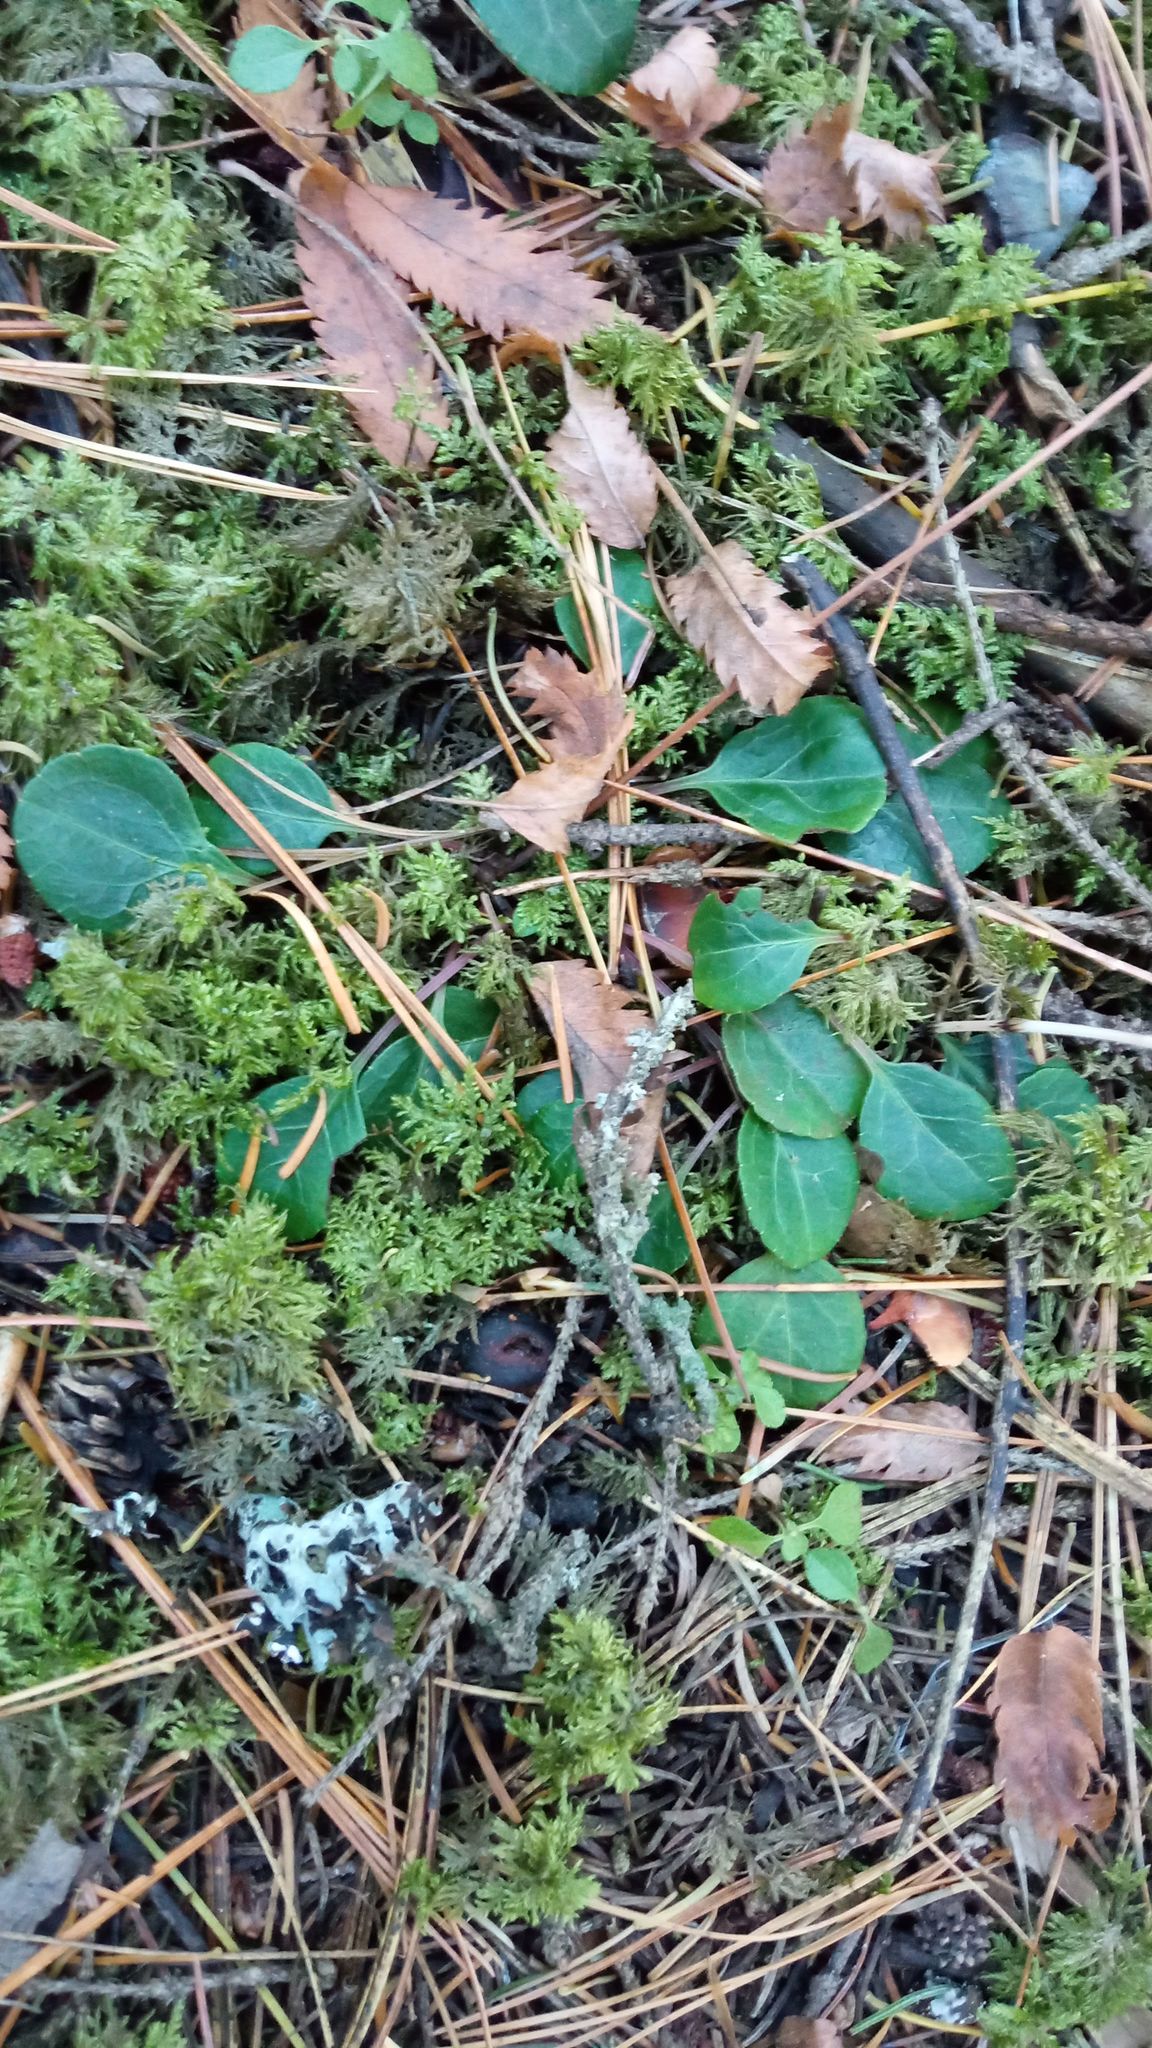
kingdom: Plantae
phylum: Tracheophyta
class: Magnoliopsida
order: Ericales
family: Ericaceae
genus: Pyrola
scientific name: Pyrola chlorantha
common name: Green wintergreen
